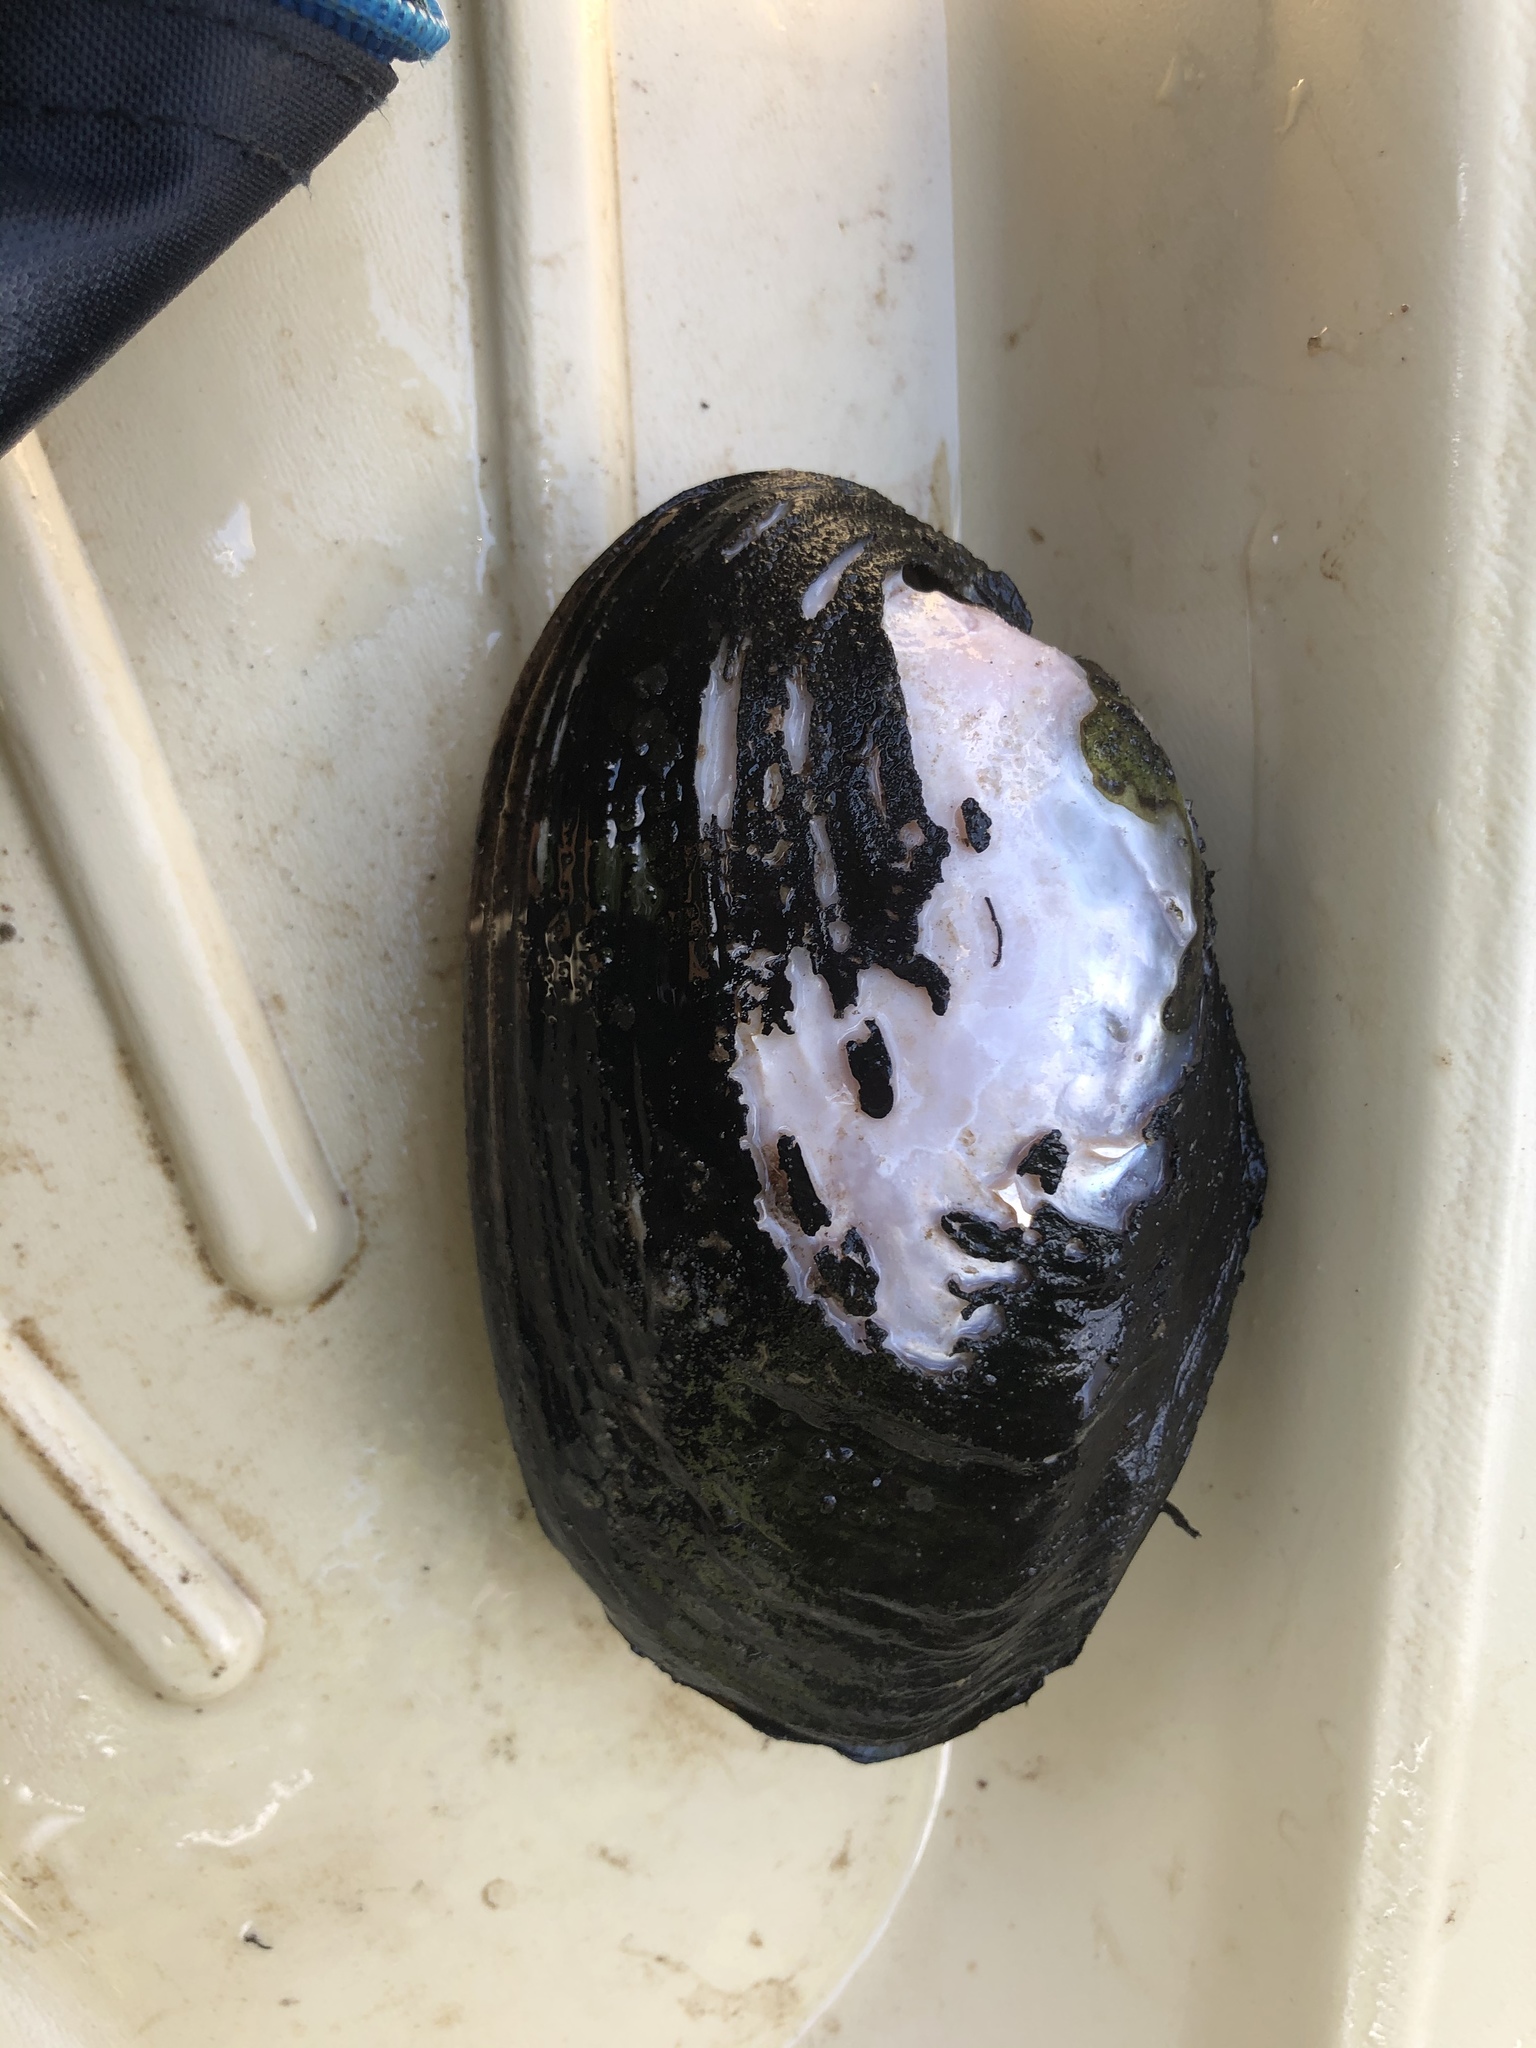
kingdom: Animalia
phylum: Mollusca
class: Bivalvia
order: Unionida
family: Unionidae
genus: Potamilus
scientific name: Potamilus purpuratus
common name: Bleufer
